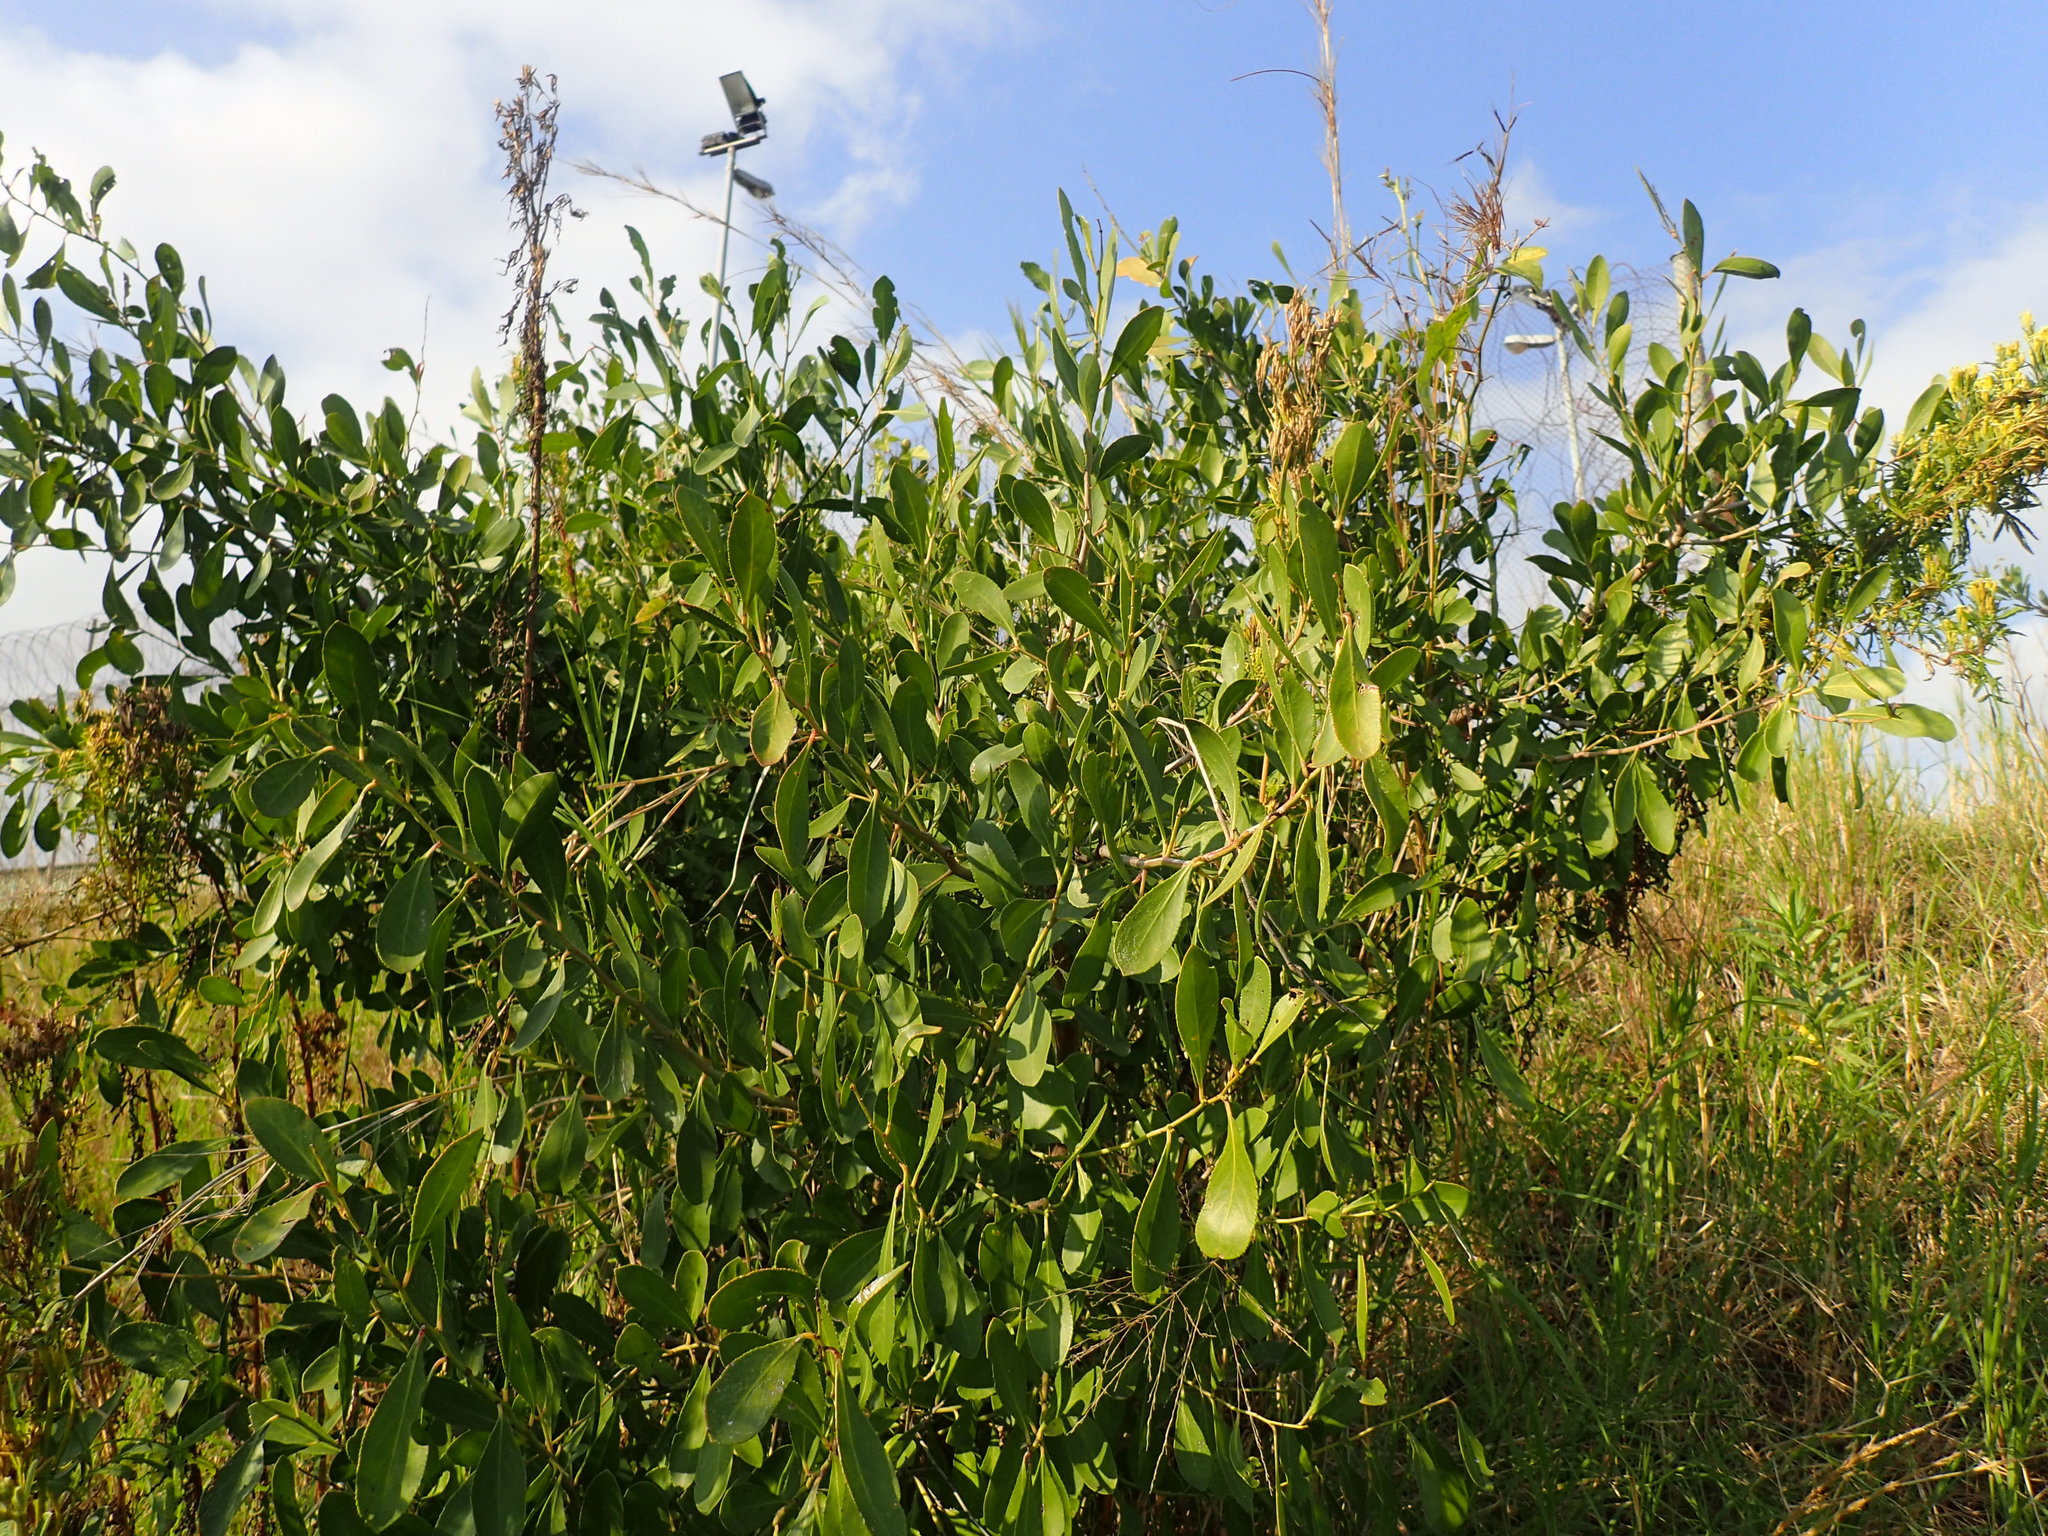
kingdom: Plantae
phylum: Tracheophyta
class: Magnoliopsida
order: Celastrales
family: Celastraceae
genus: Gymnosporia
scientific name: Gymnosporia senegalensis
